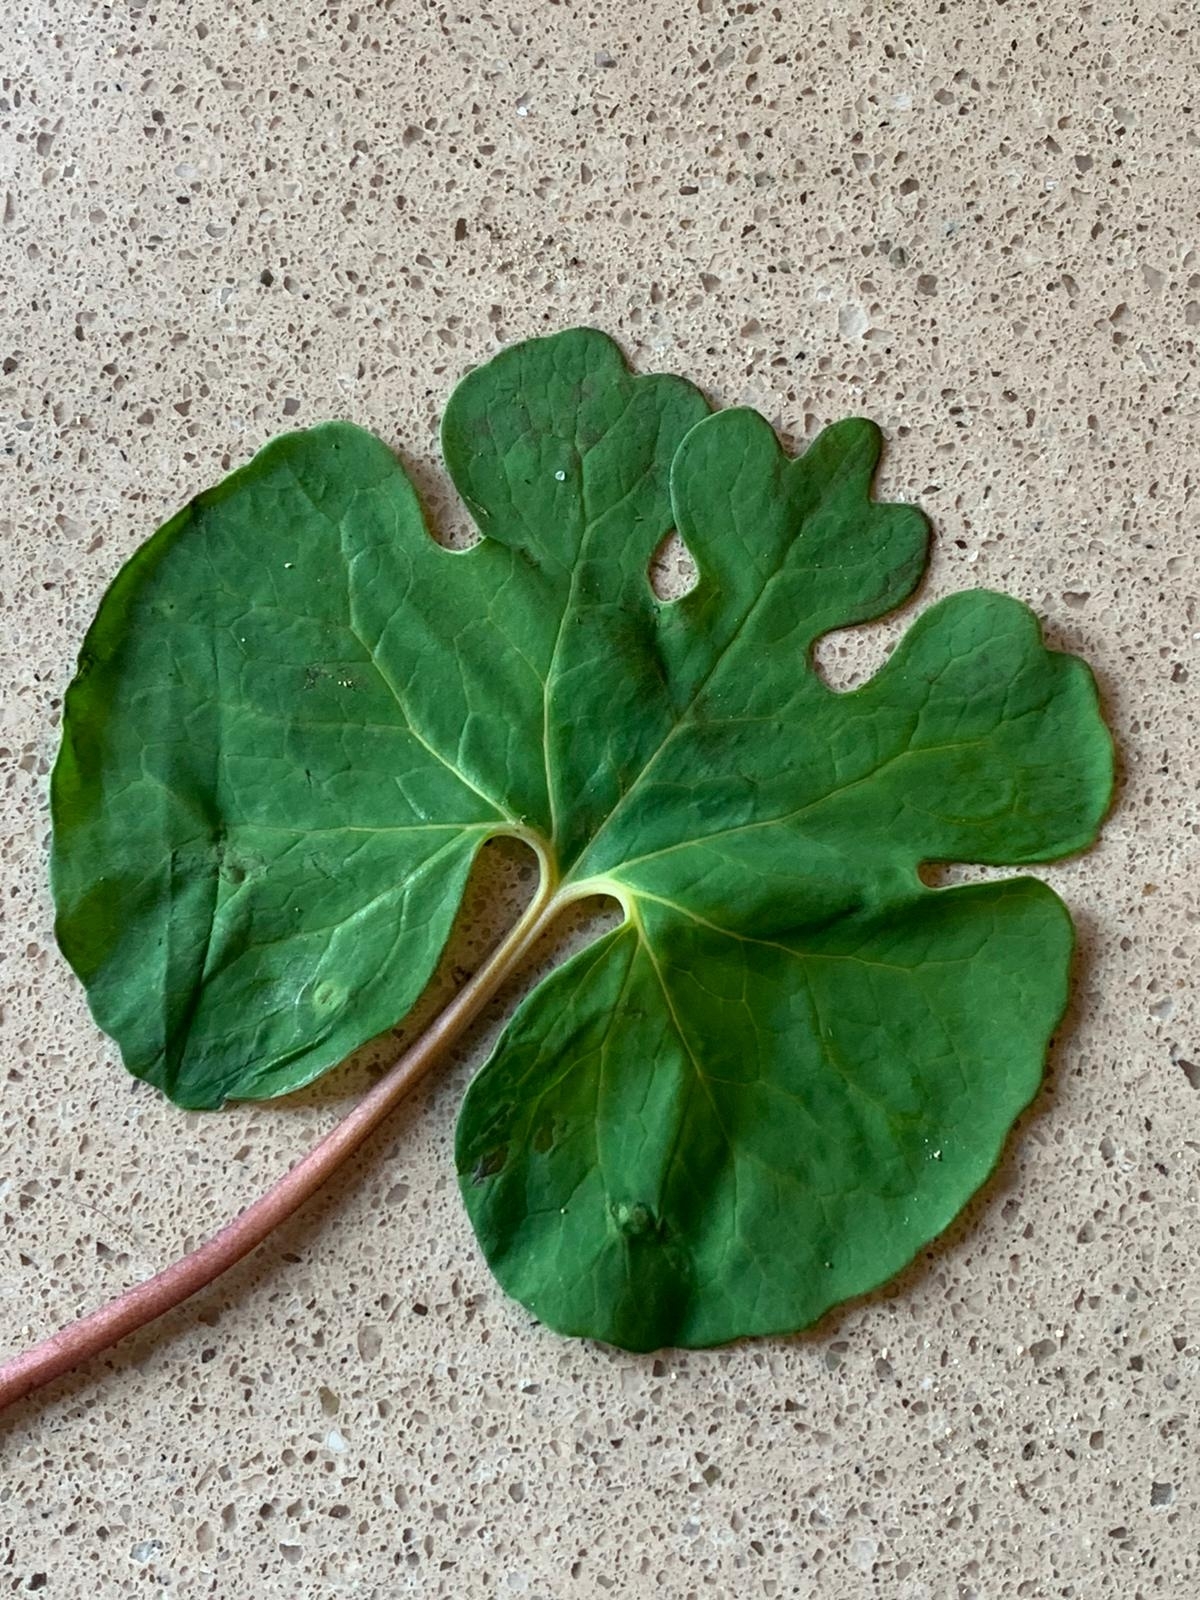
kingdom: Plantae
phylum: Tracheophyta
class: Magnoliopsida
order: Ranunculales
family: Papaveraceae
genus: Sanguinaria
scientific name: Sanguinaria canadensis
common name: Bloodroot
